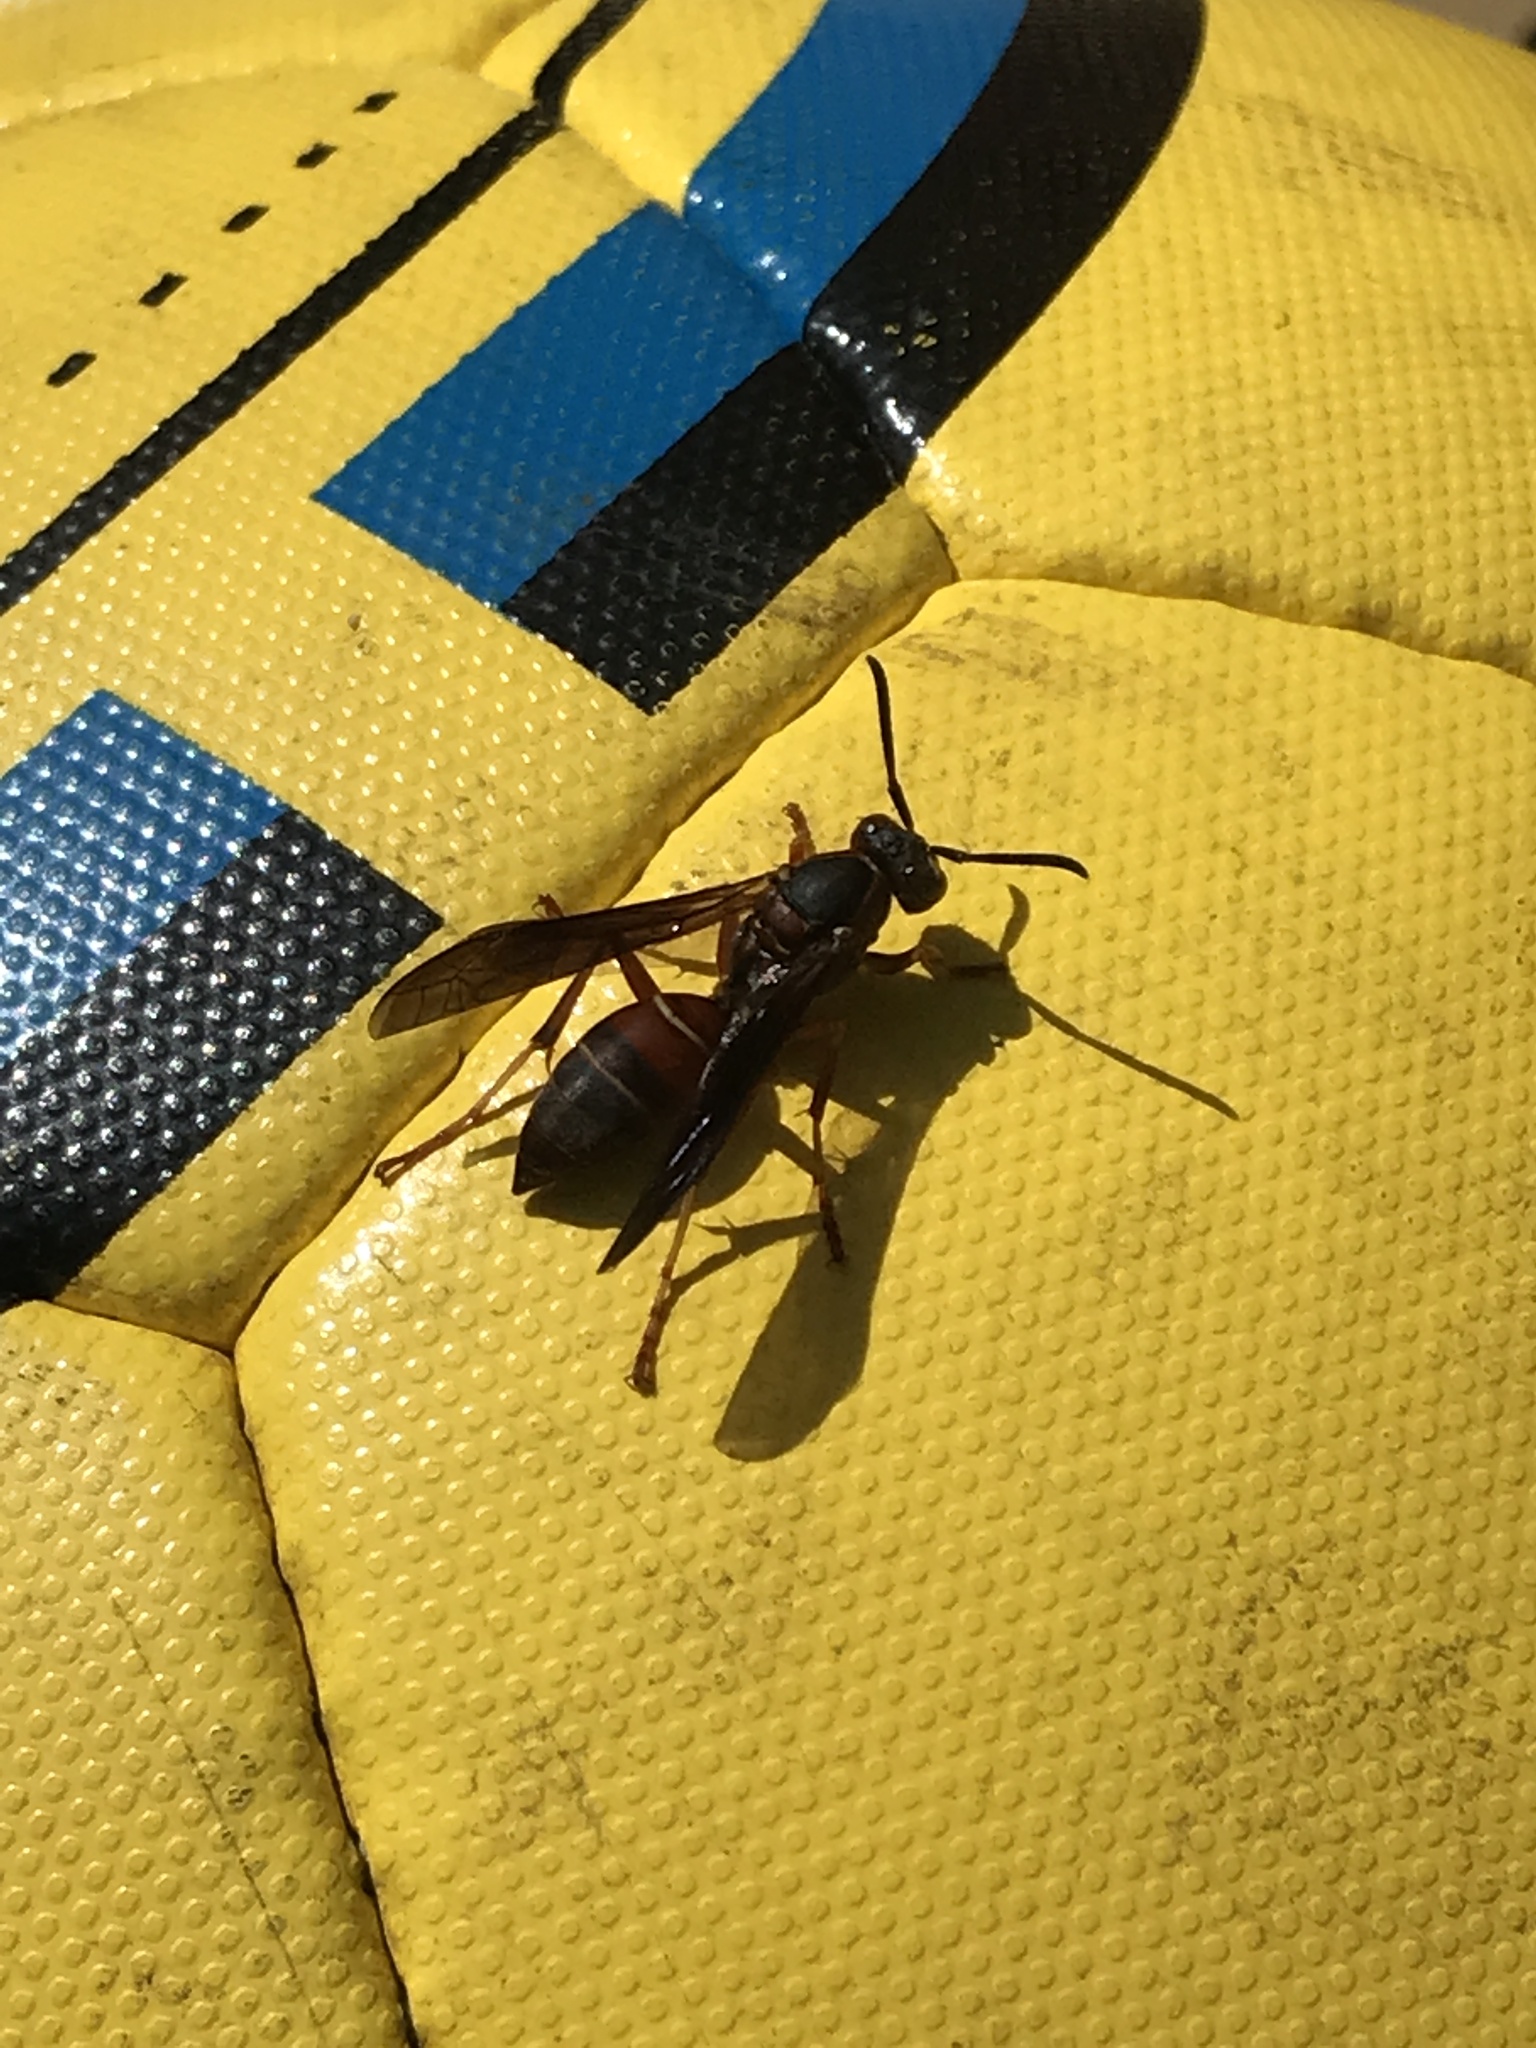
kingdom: Animalia
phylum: Arthropoda
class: Insecta
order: Hymenoptera
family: Eumenidae
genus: Polistes
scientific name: Polistes fuscatus
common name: Dark paper wasp
